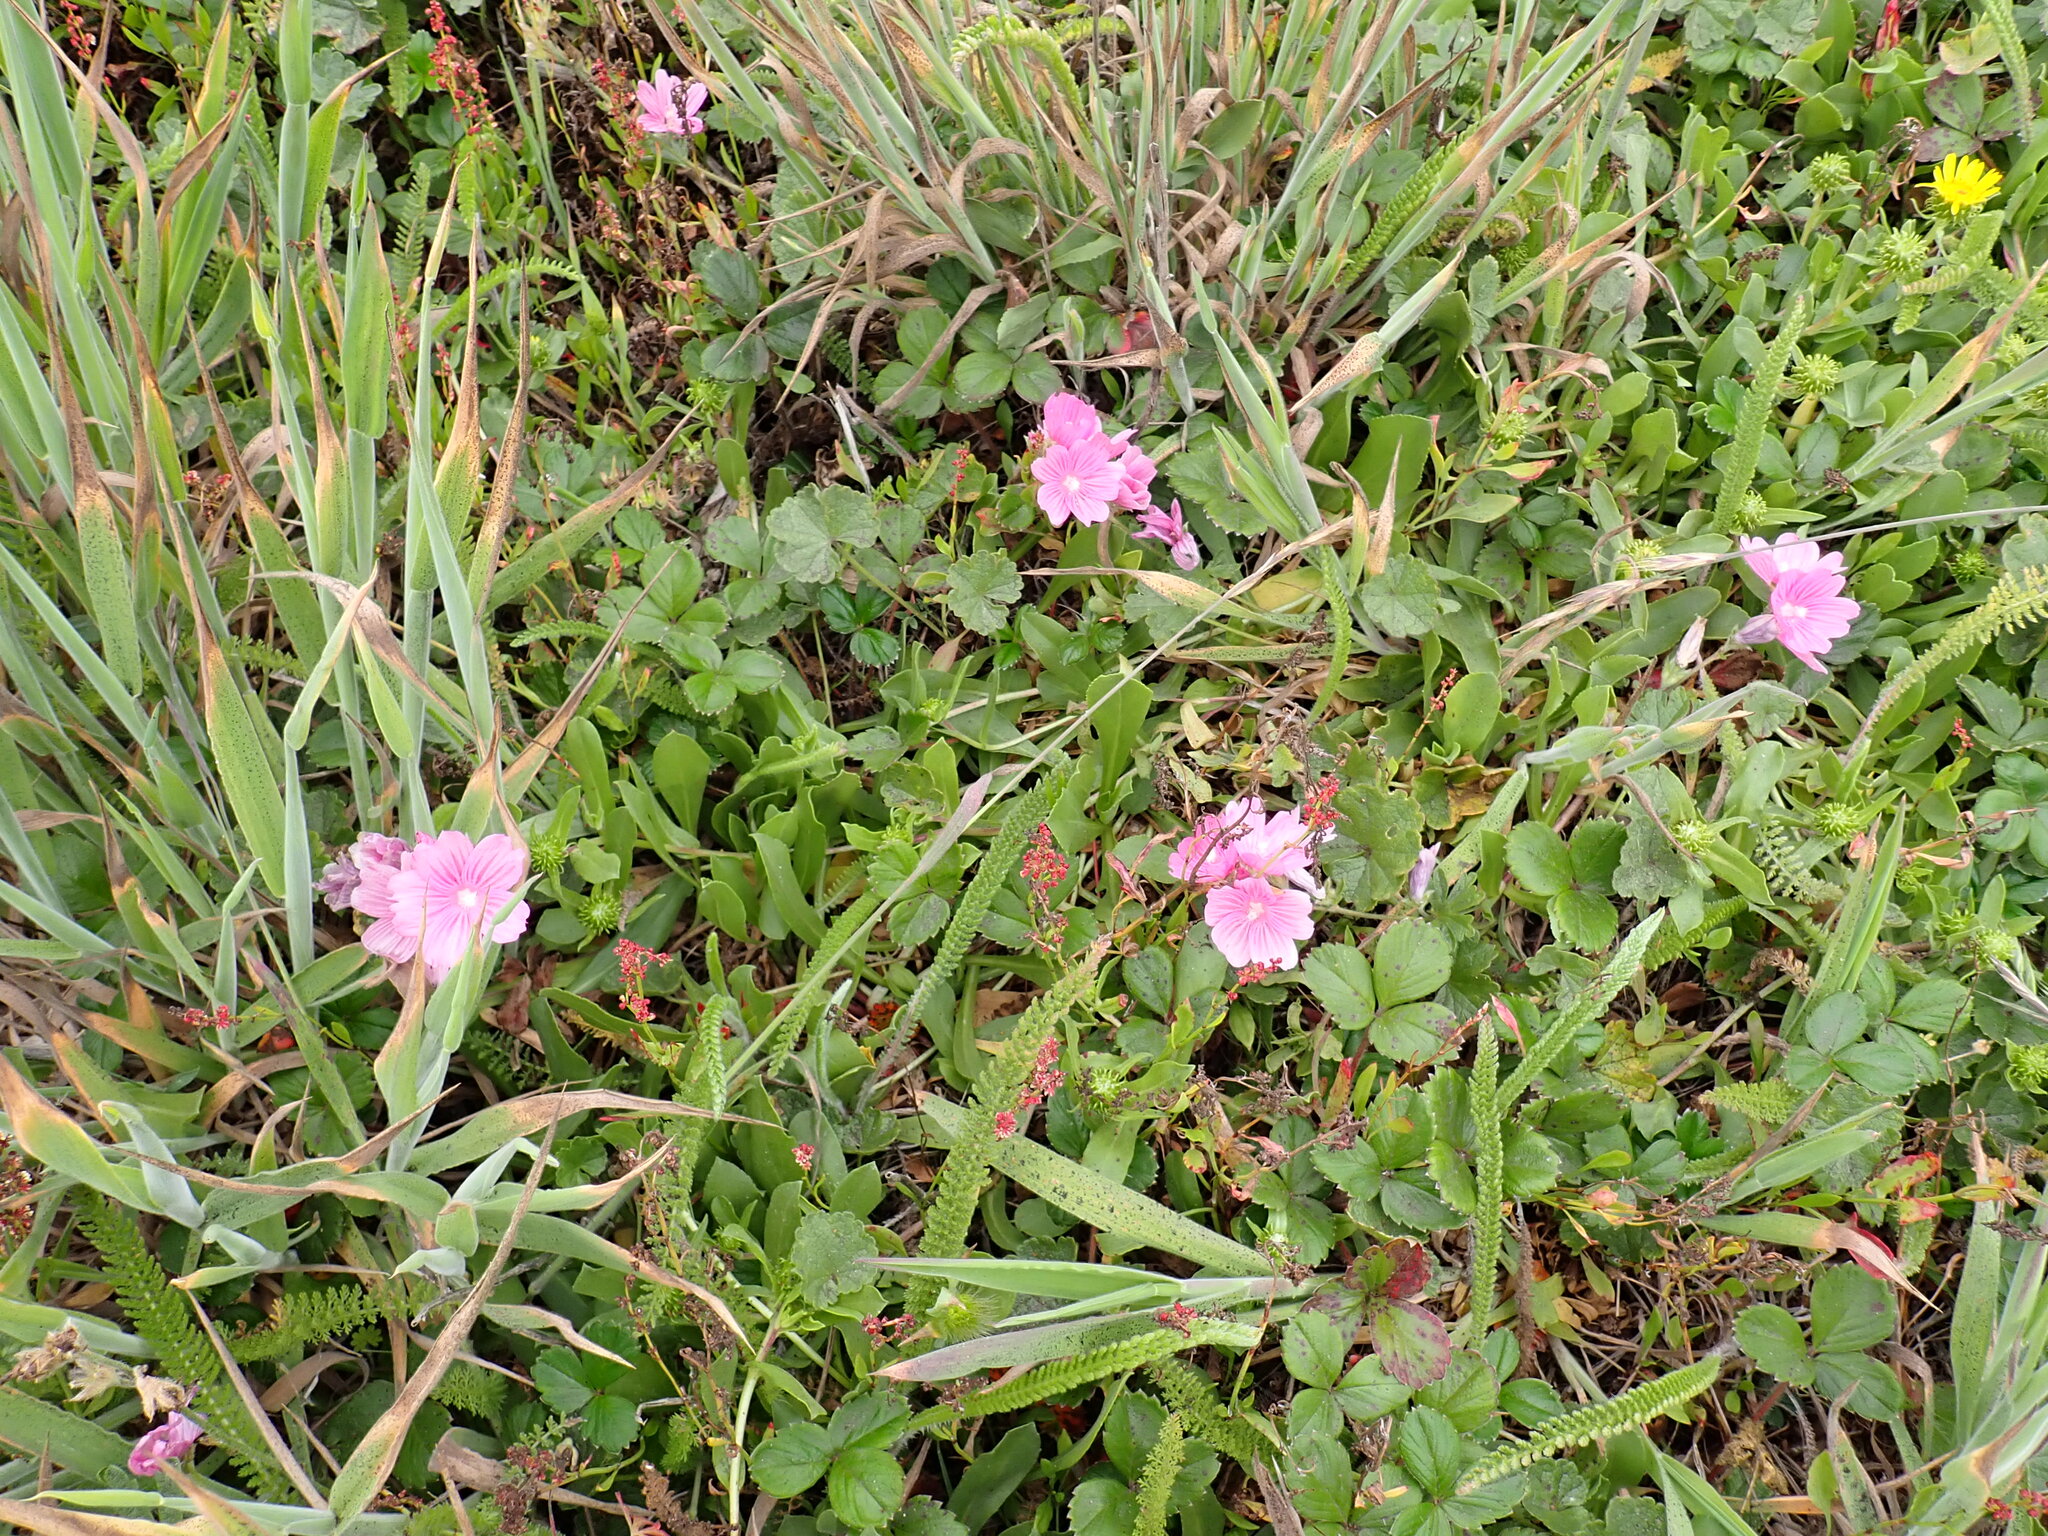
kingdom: Plantae
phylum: Tracheophyta
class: Magnoliopsida
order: Malvales
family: Malvaceae
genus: Sidalcea
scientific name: Sidalcea malviflora
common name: Greek mallow
